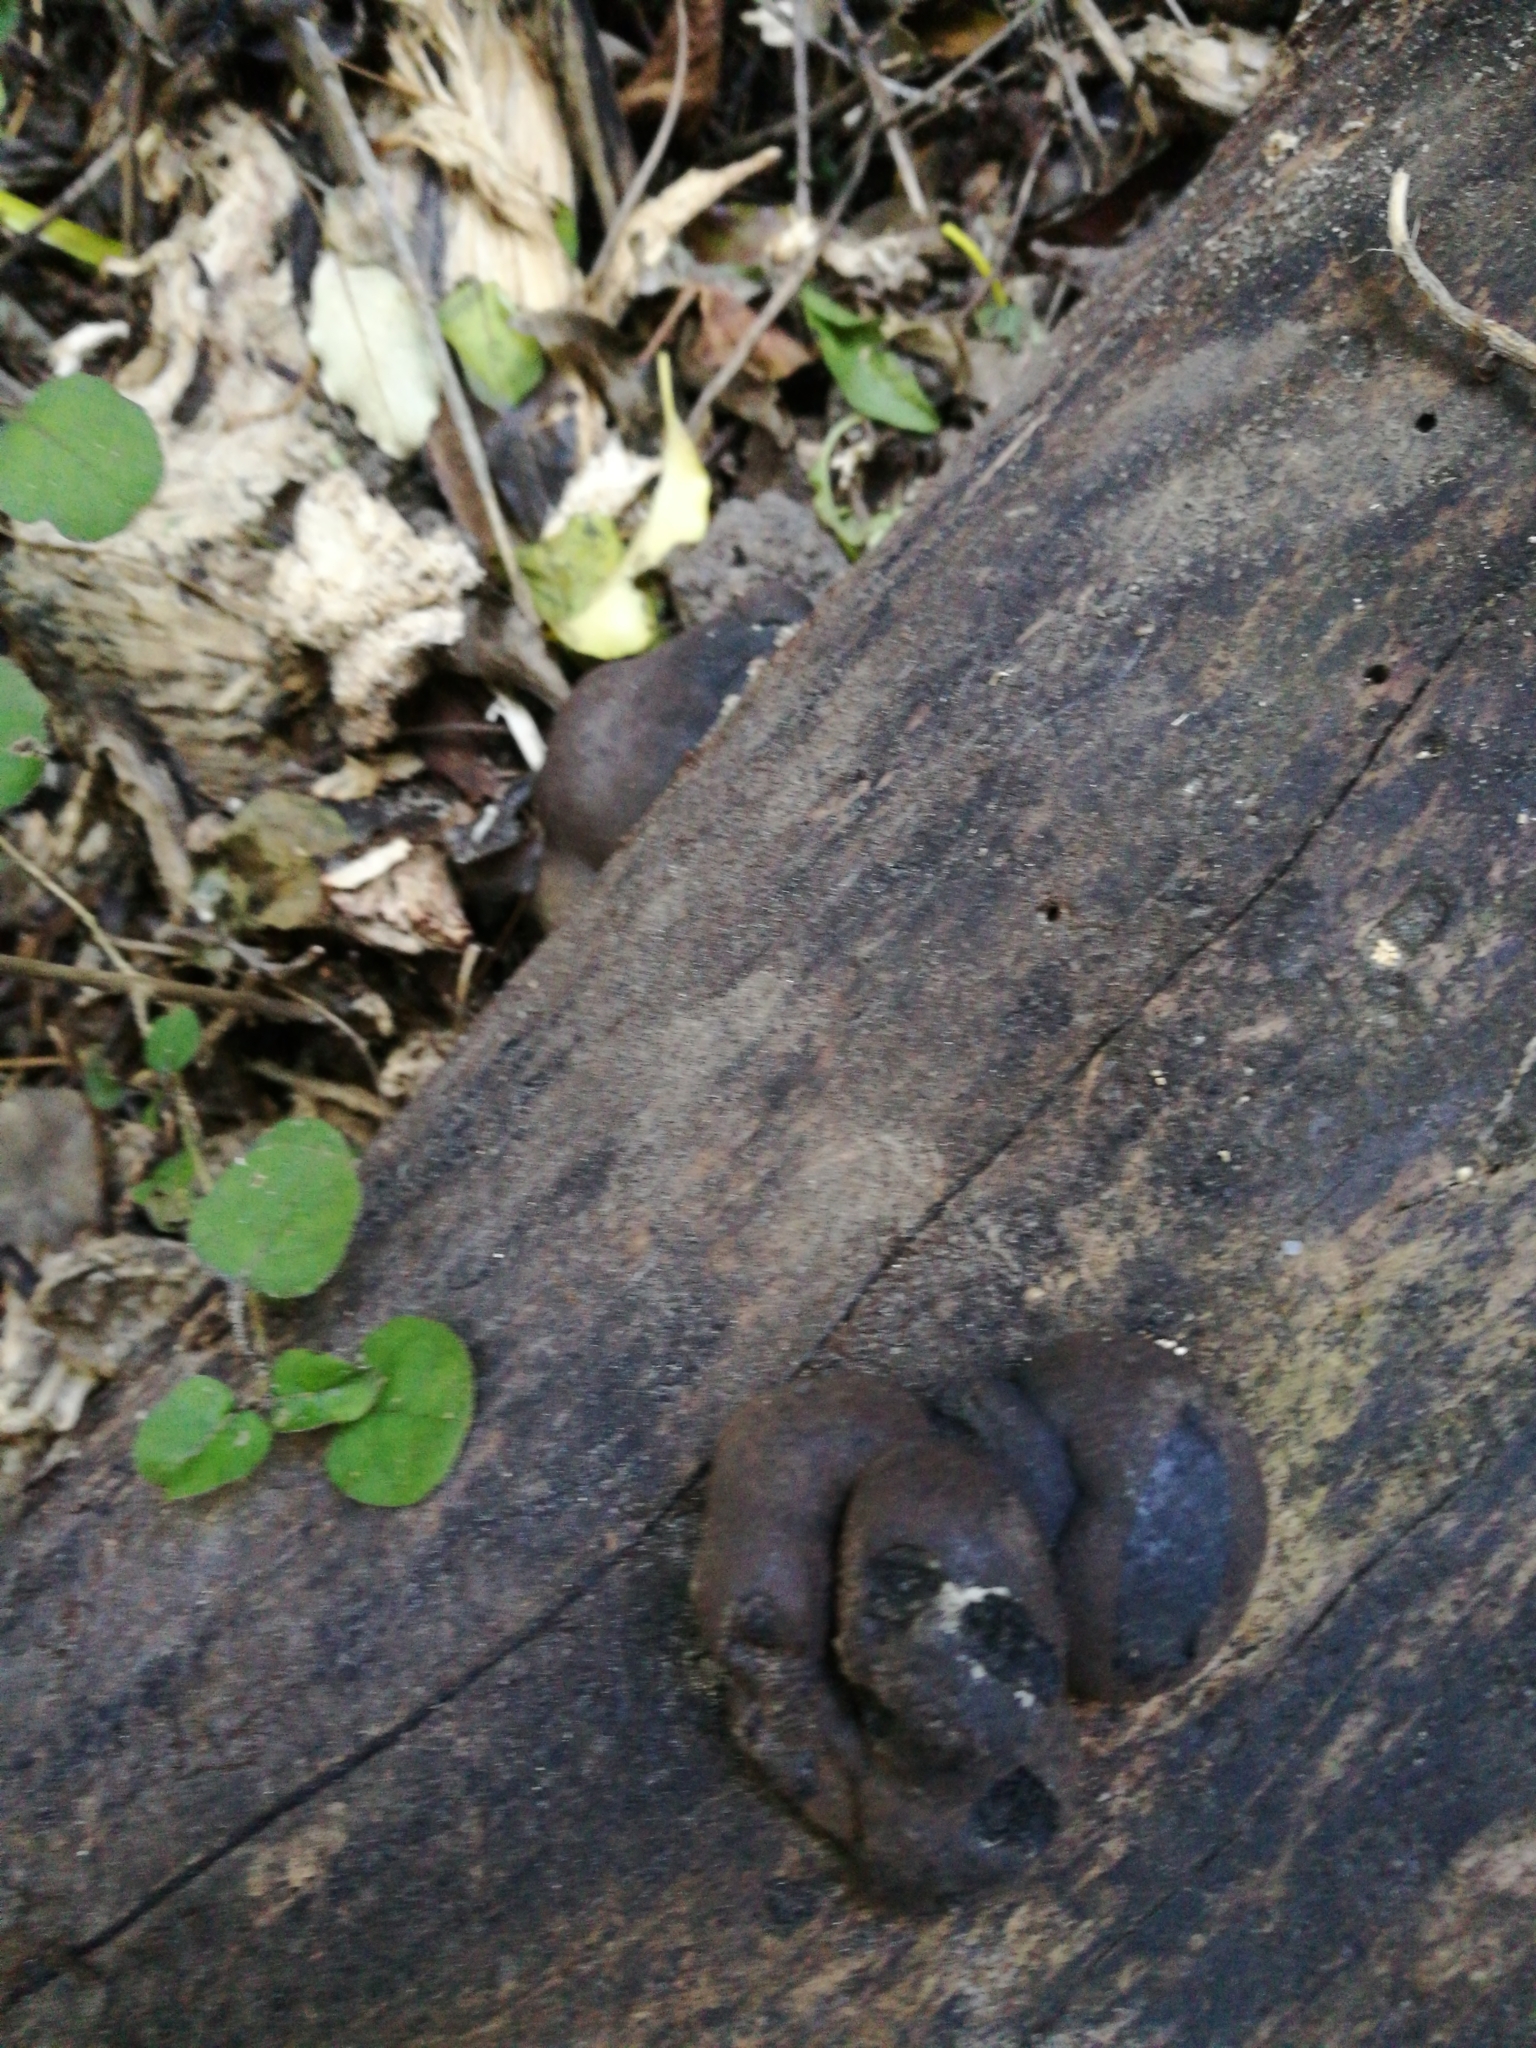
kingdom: Fungi
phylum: Ascomycota
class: Sordariomycetes
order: Xylariales
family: Hypoxylaceae
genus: Daldinia
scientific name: Daldinia
